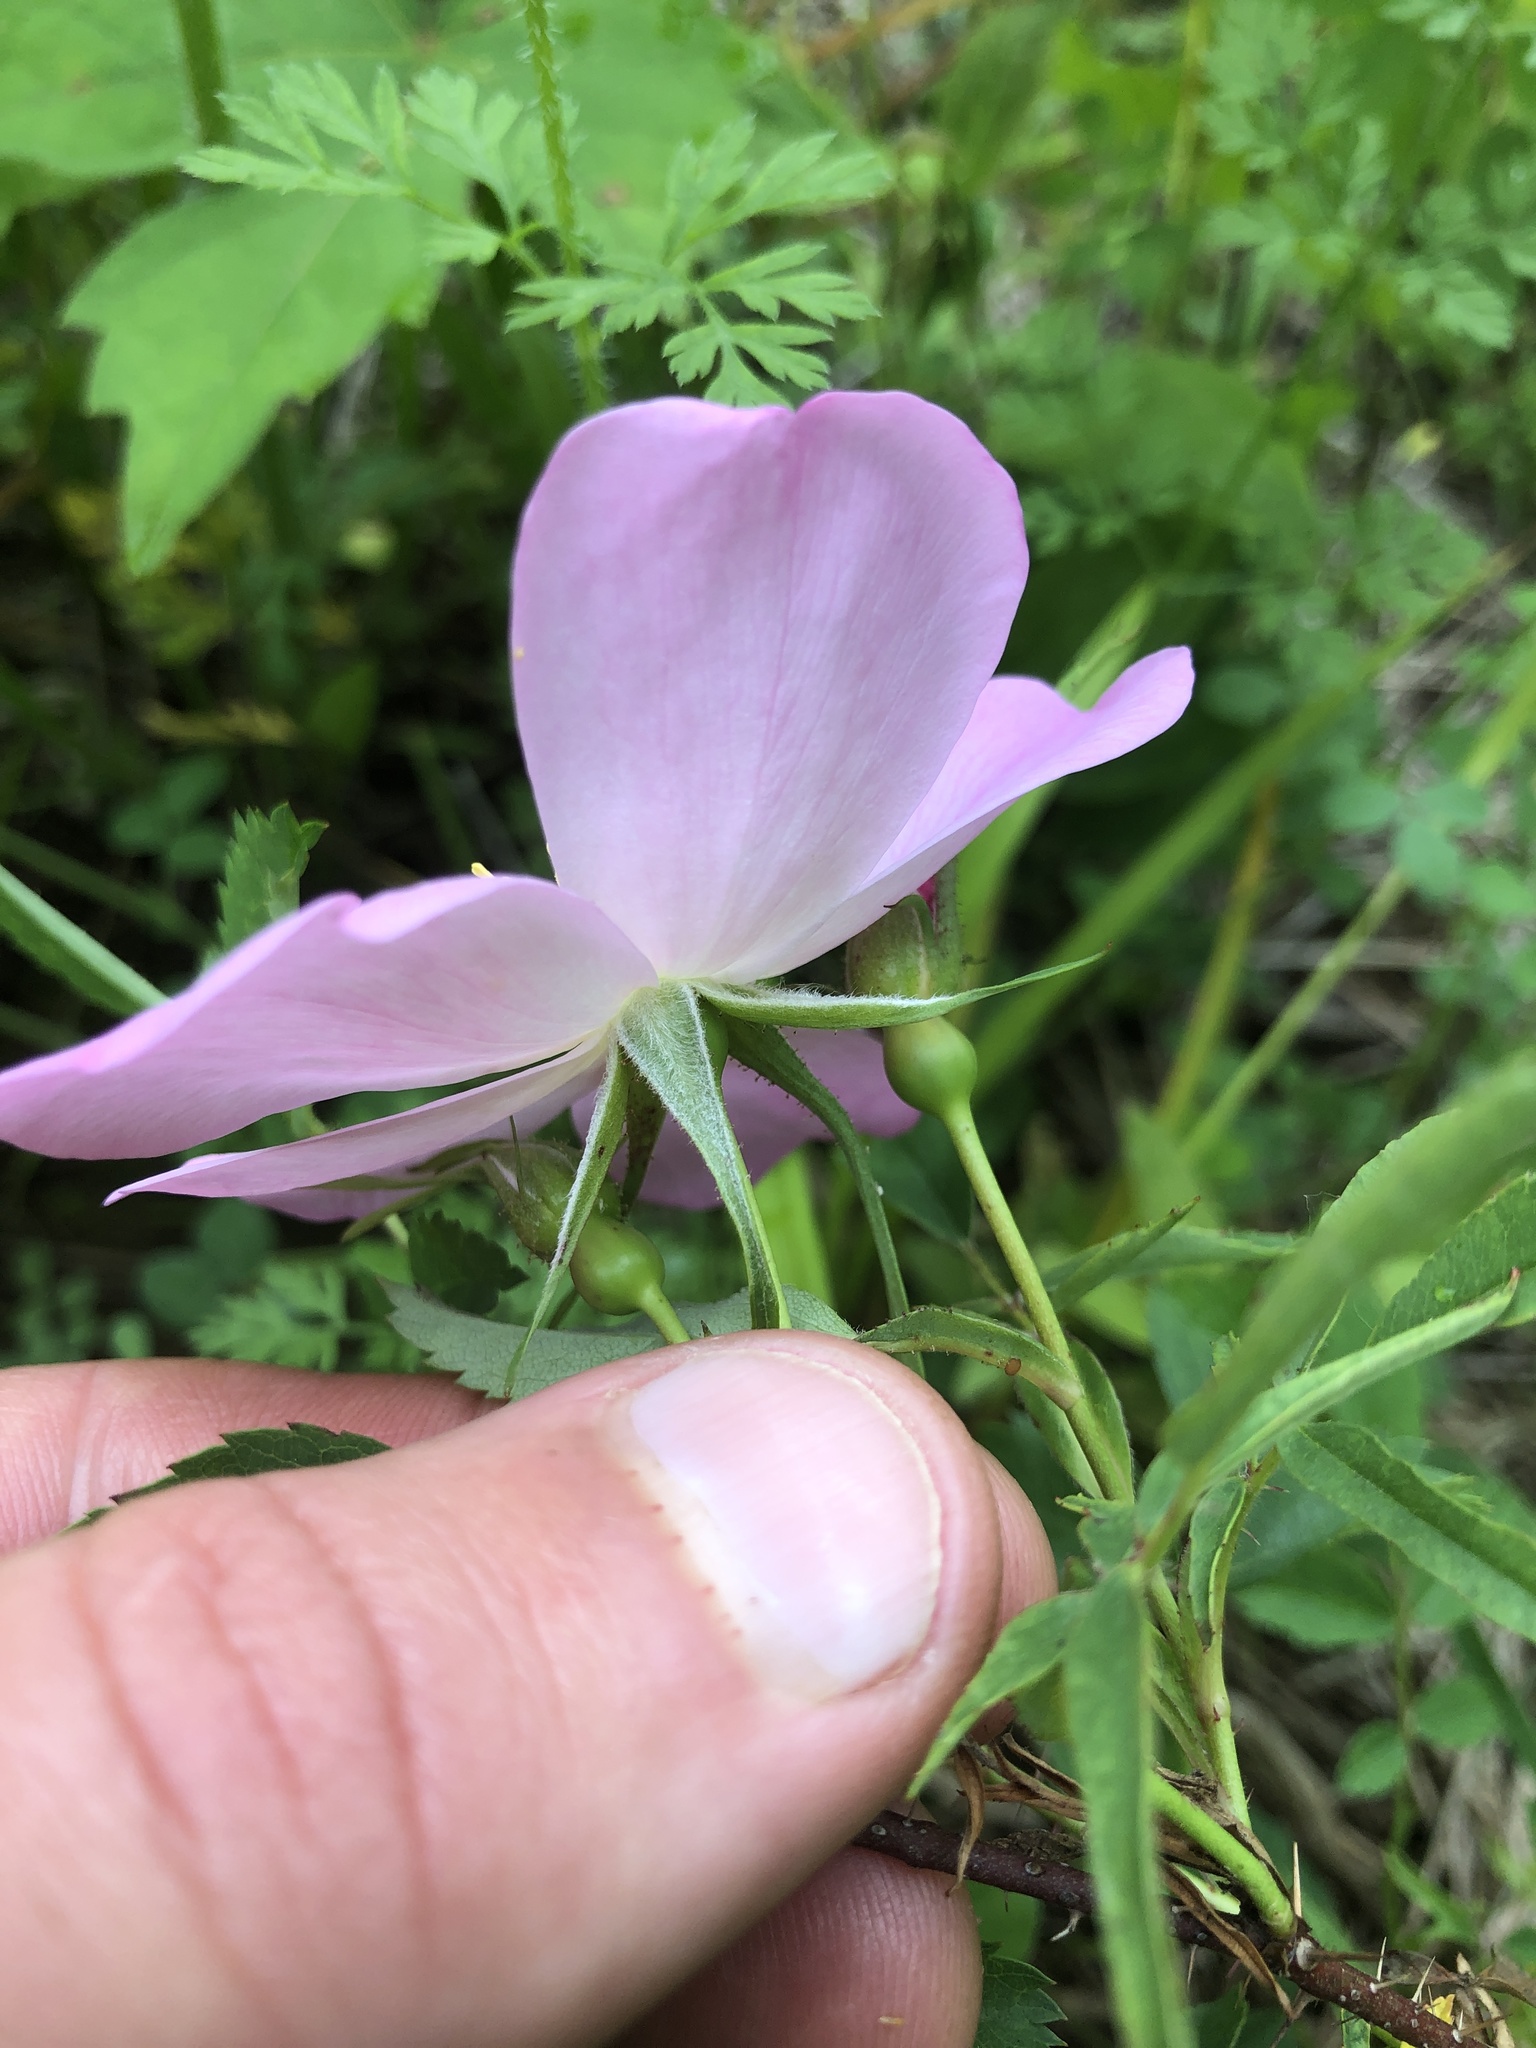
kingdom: Plantae
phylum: Tracheophyta
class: Magnoliopsida
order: Rosales
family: Rosaceae
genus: Rosa
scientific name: Rosa carolina
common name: Pasture rose
